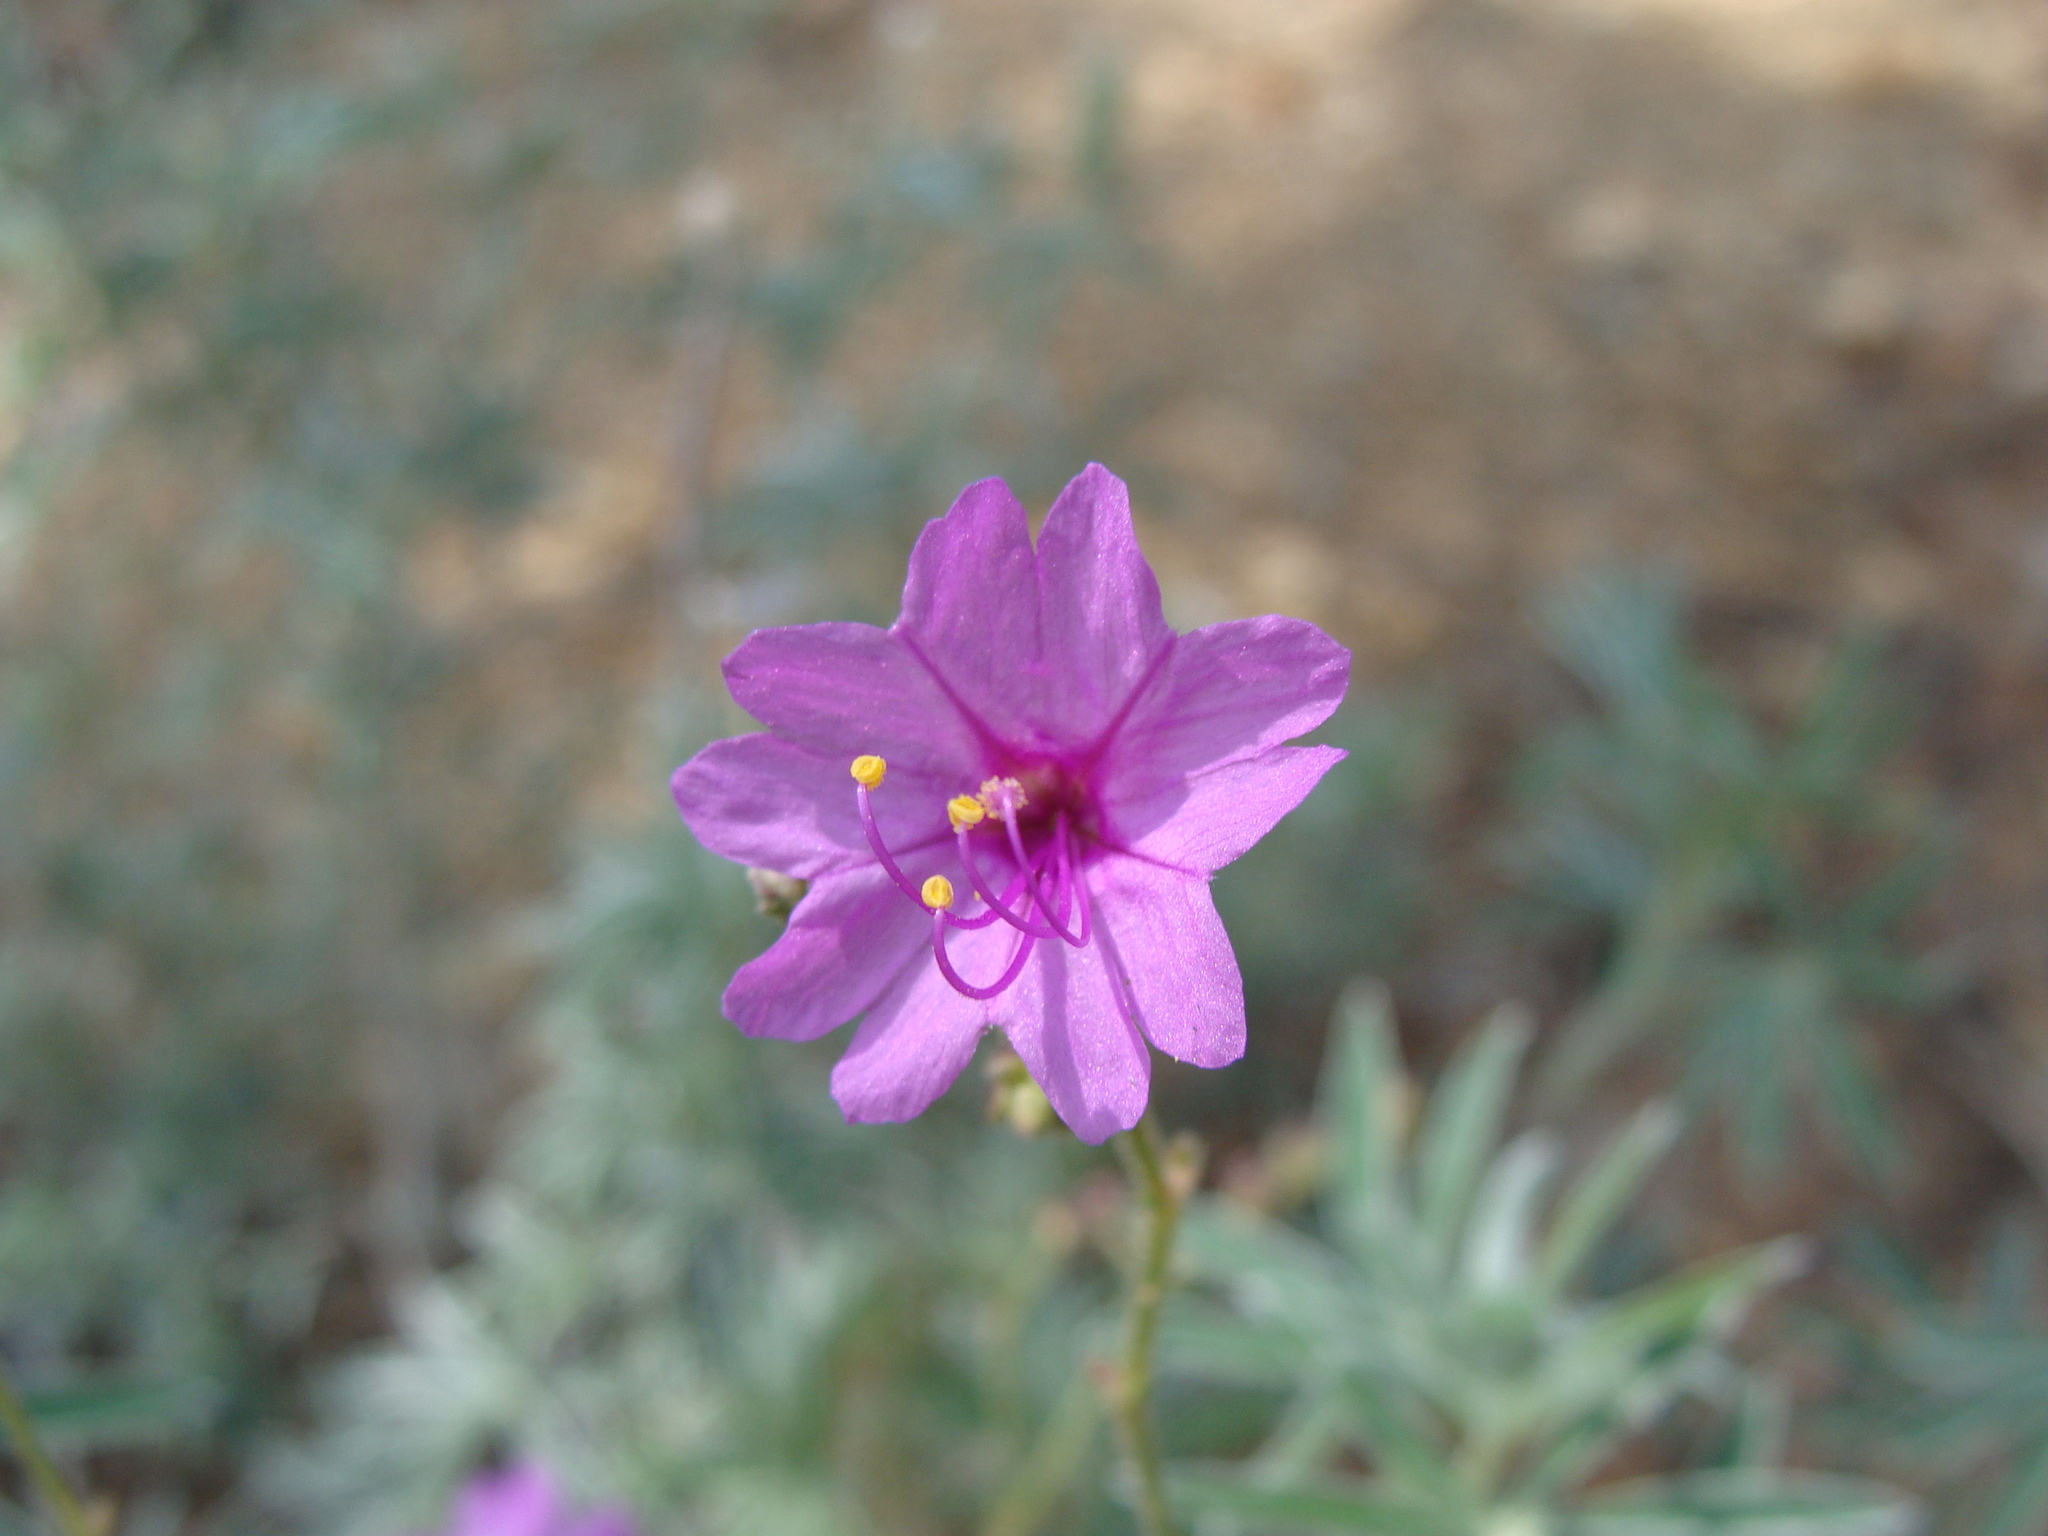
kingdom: Plantae
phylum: Tracheophyta
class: Magnoliopsida
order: Caryophyllales
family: Nyctaginaceae
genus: Mirabilis
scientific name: Mirabilis viscosa
